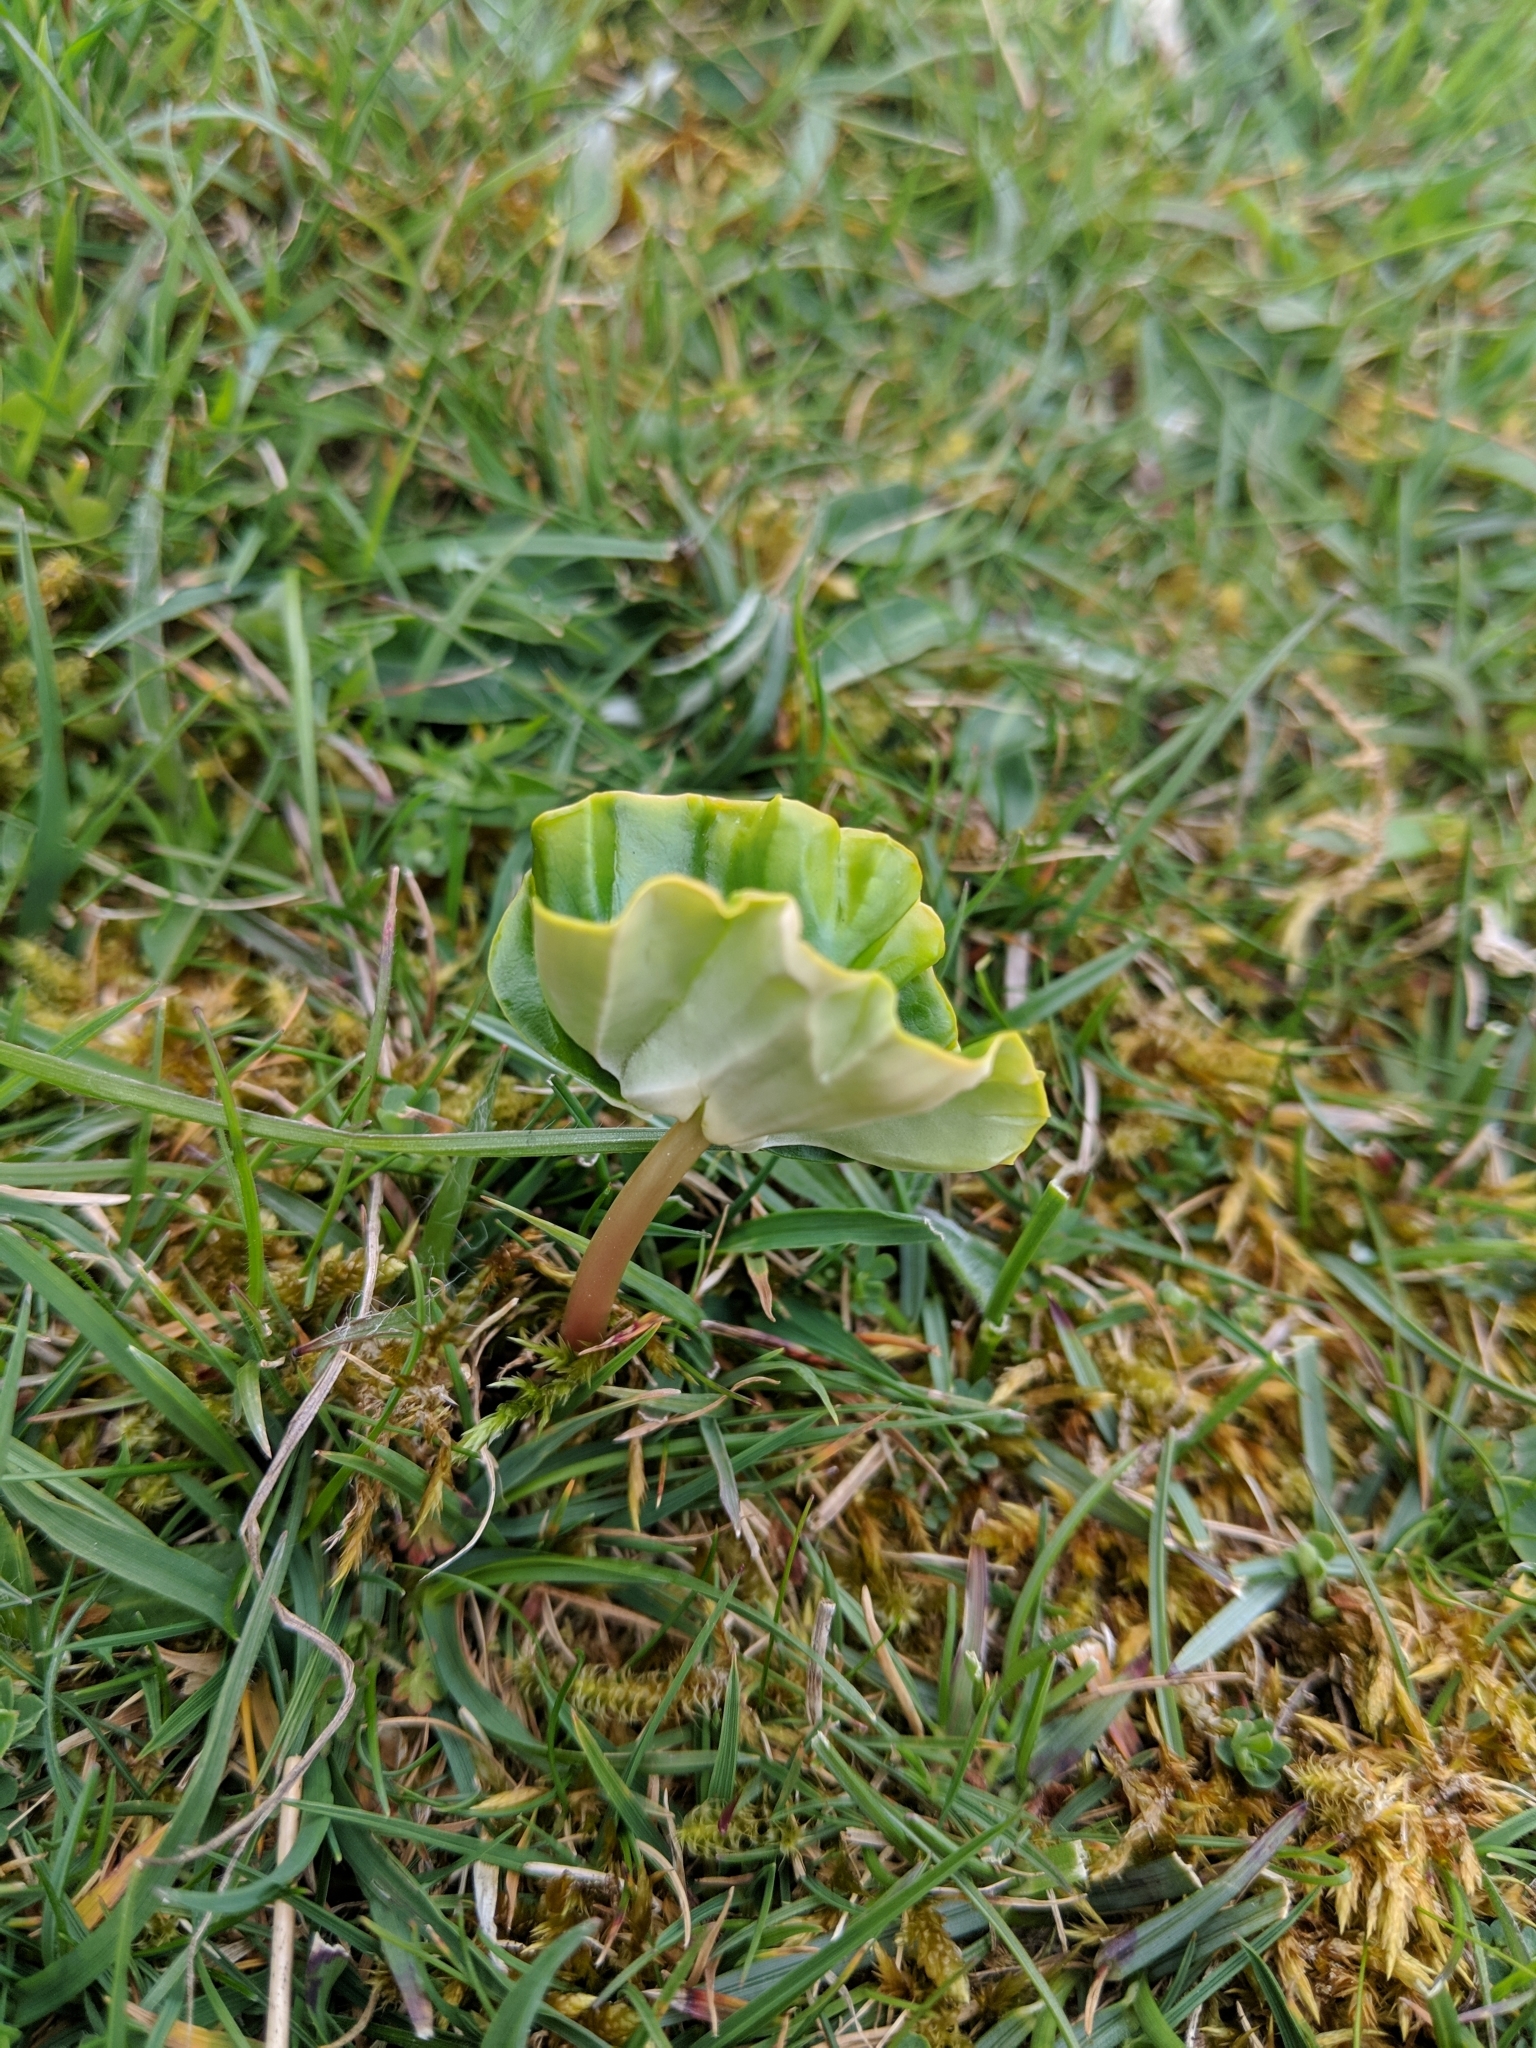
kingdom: Plantae
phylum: Tracheophyta
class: Magnoliopsida
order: Fagales
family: Fagaceae
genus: Fagus
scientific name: Fagus sylvatica
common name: Beech
